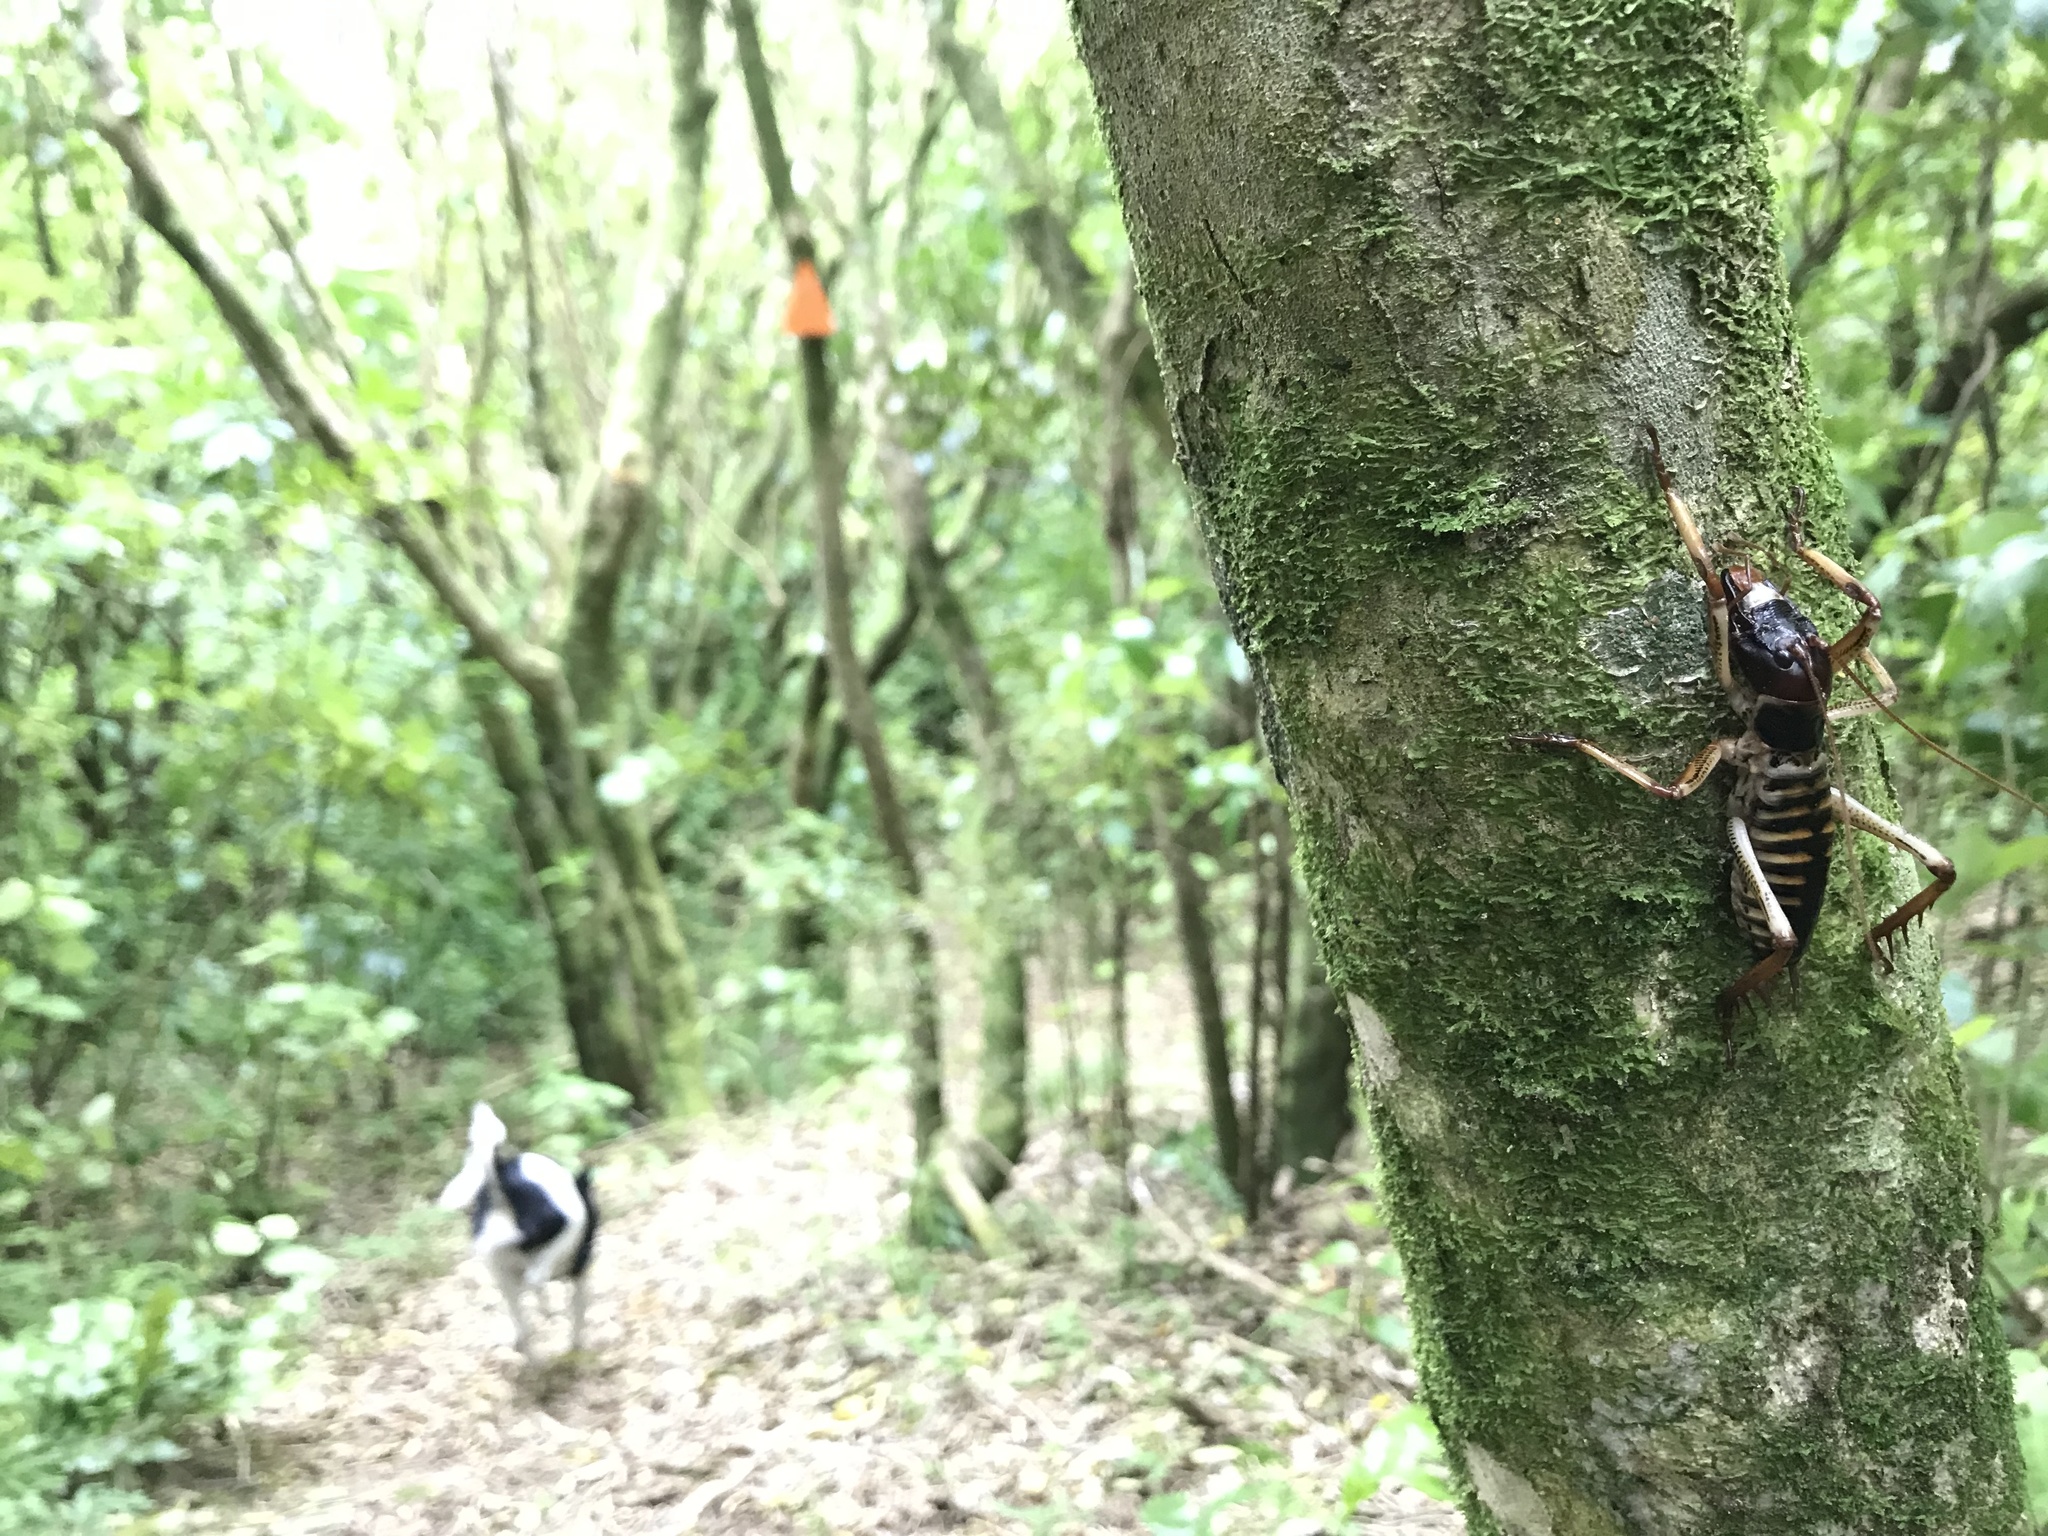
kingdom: Animalia
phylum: Arthropoda
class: Insecta
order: Orthoptera
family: Anostostomatidae
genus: Hemideina
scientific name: Hemideina crassidens
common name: Wellington tree weta
